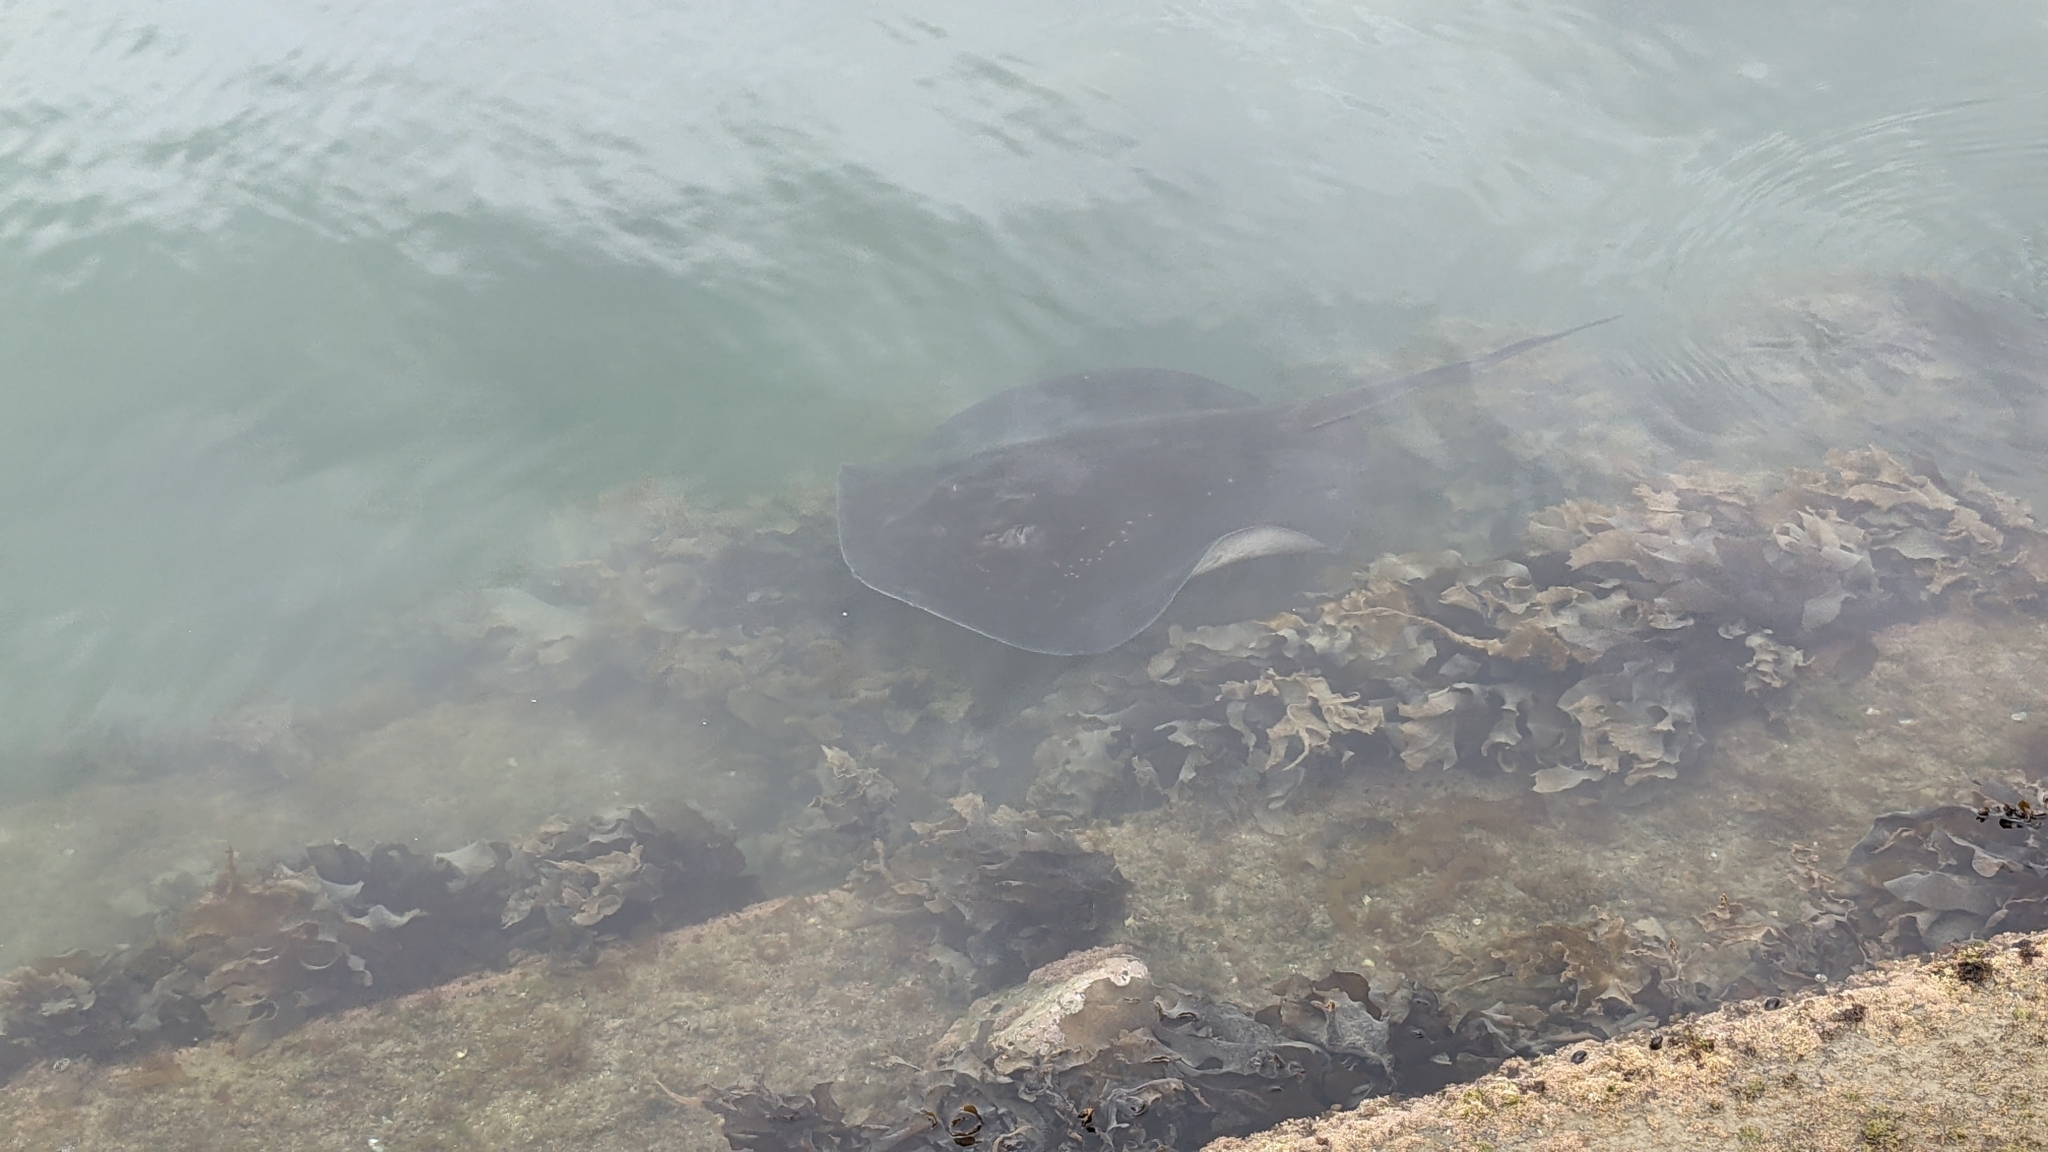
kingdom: Animalia
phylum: Chordata
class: Elasmobranchii
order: Myliobatiformes
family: Dasyatidae
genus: Bathytoshia
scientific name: Bathytoshia brevicaudata
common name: Short-tail stingray
